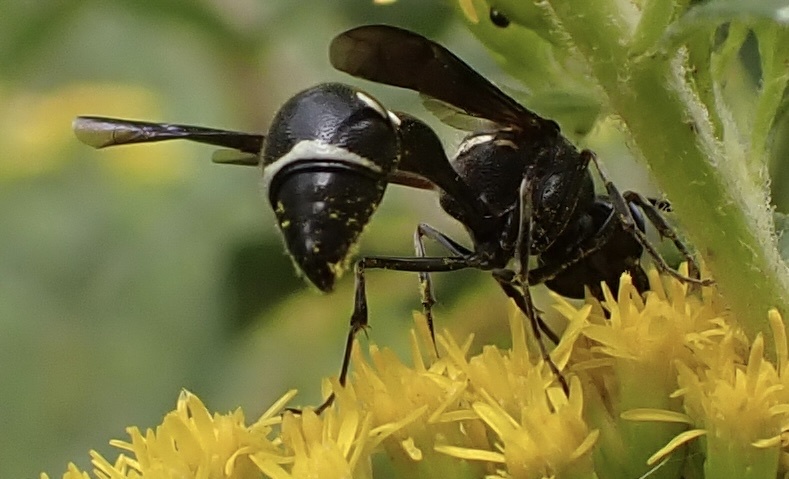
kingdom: Animalia
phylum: Arthropoda
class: Insecta
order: Hymenoptera
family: Vespidae
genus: Eumenes
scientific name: Eumenes fraternus
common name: Fraternal potter wasp
